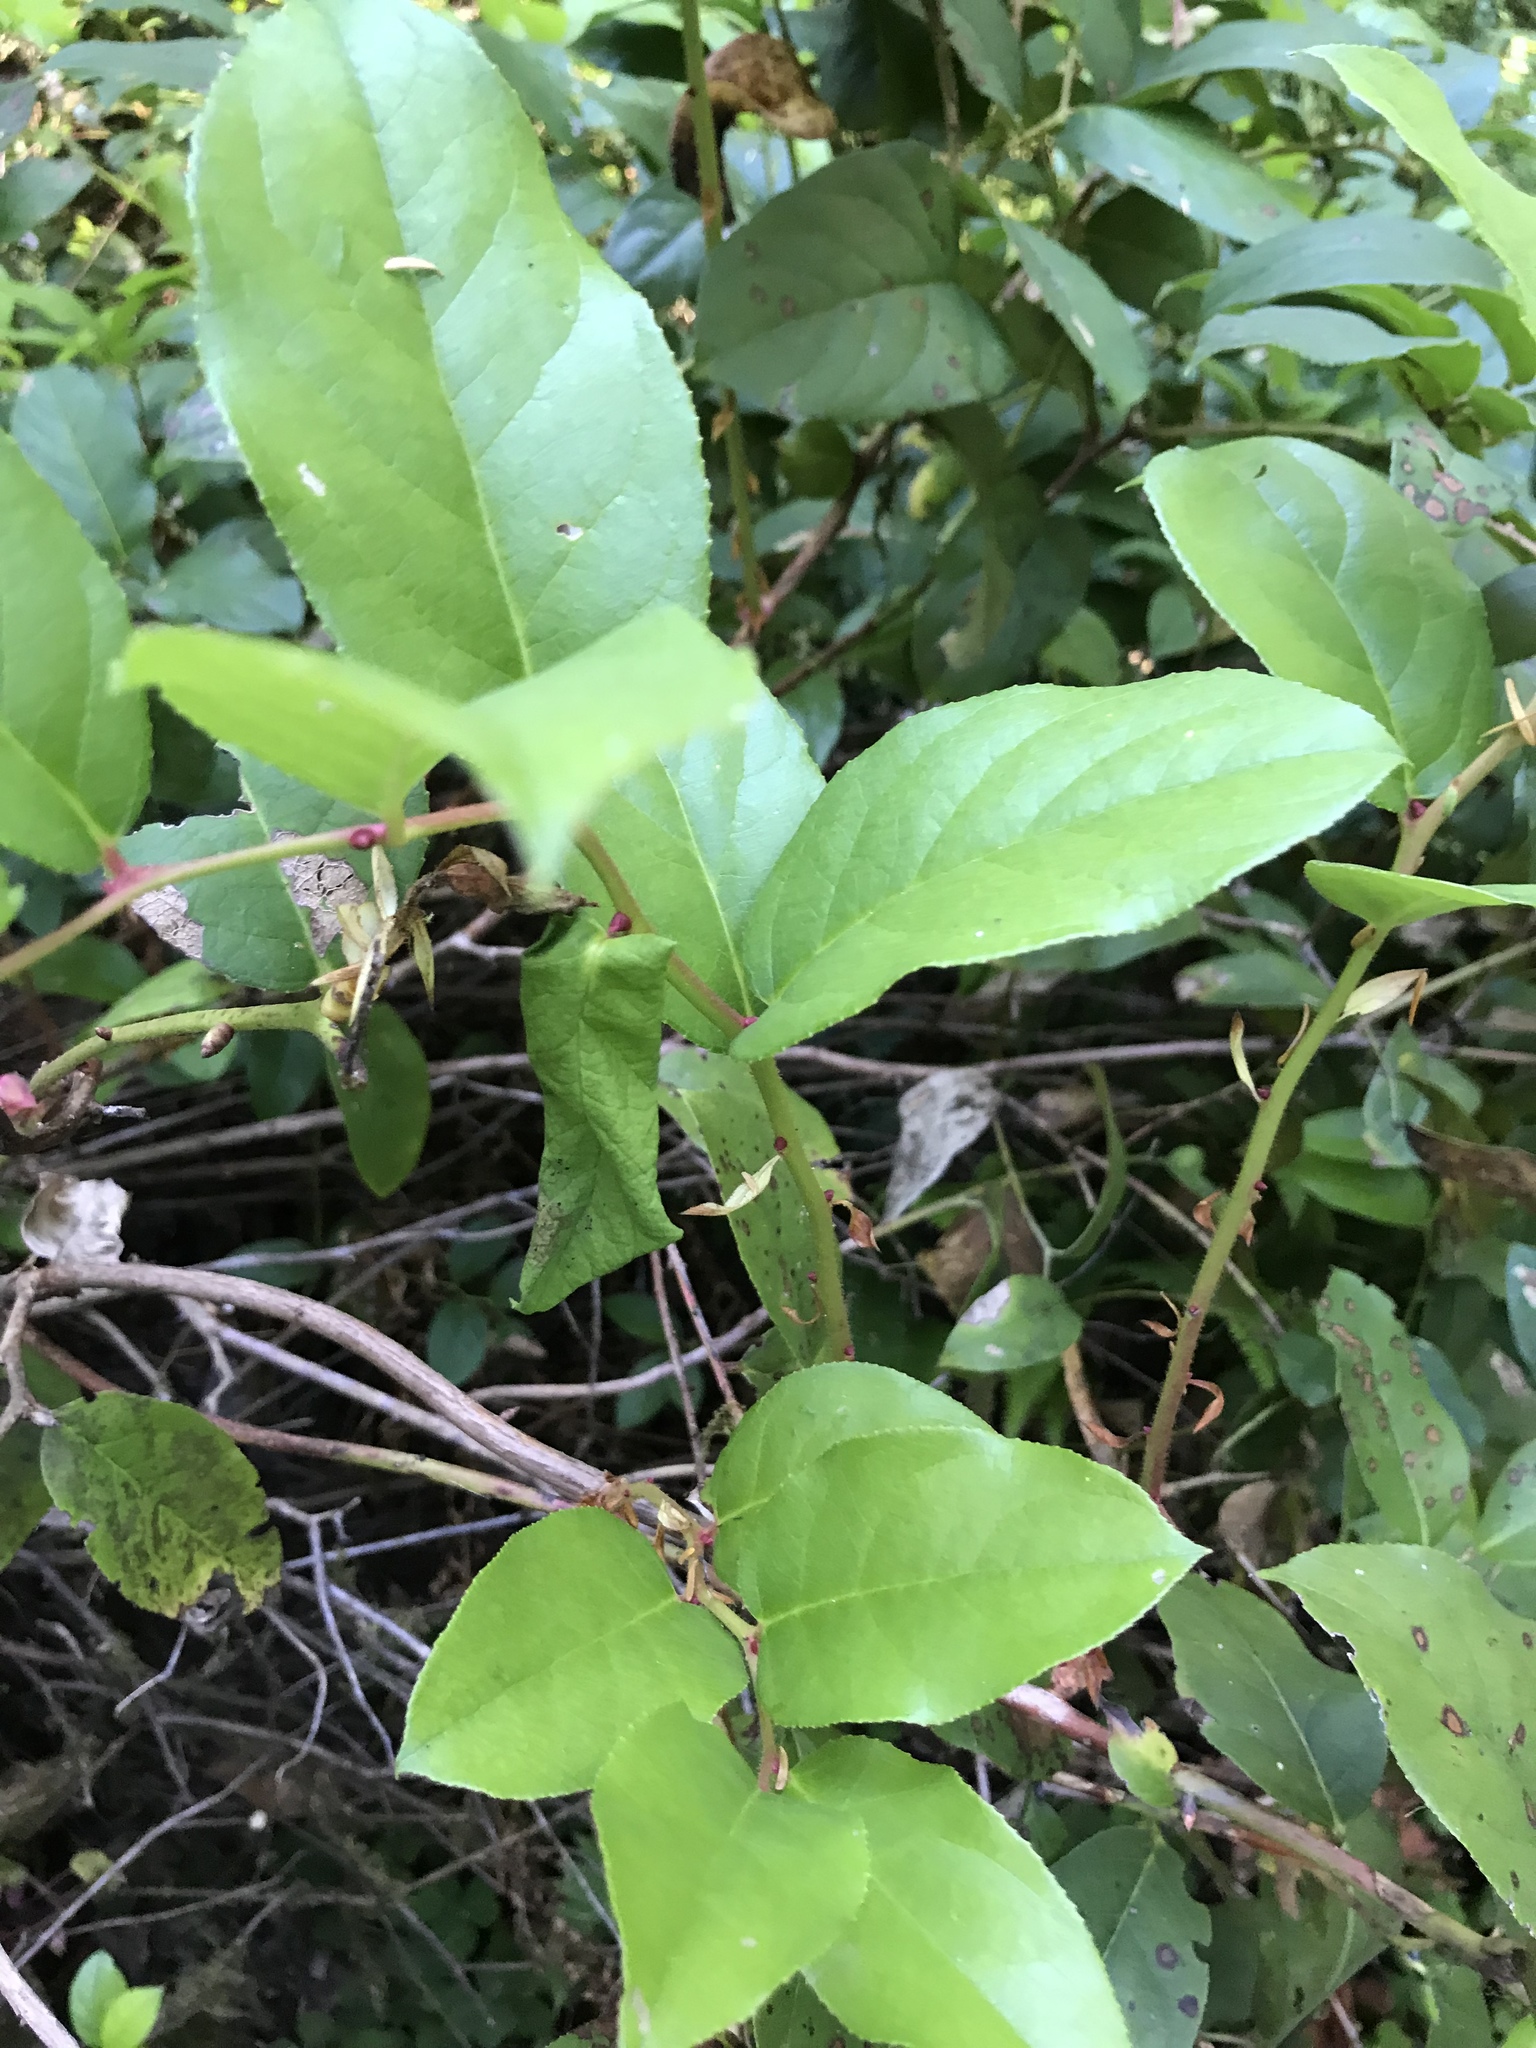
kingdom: Plantae
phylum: Tracheophyta
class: Magnoliopsida
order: Ericales
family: Ericaceae
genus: Gaultheria
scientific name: Gaultheria shallon
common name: Shallon
